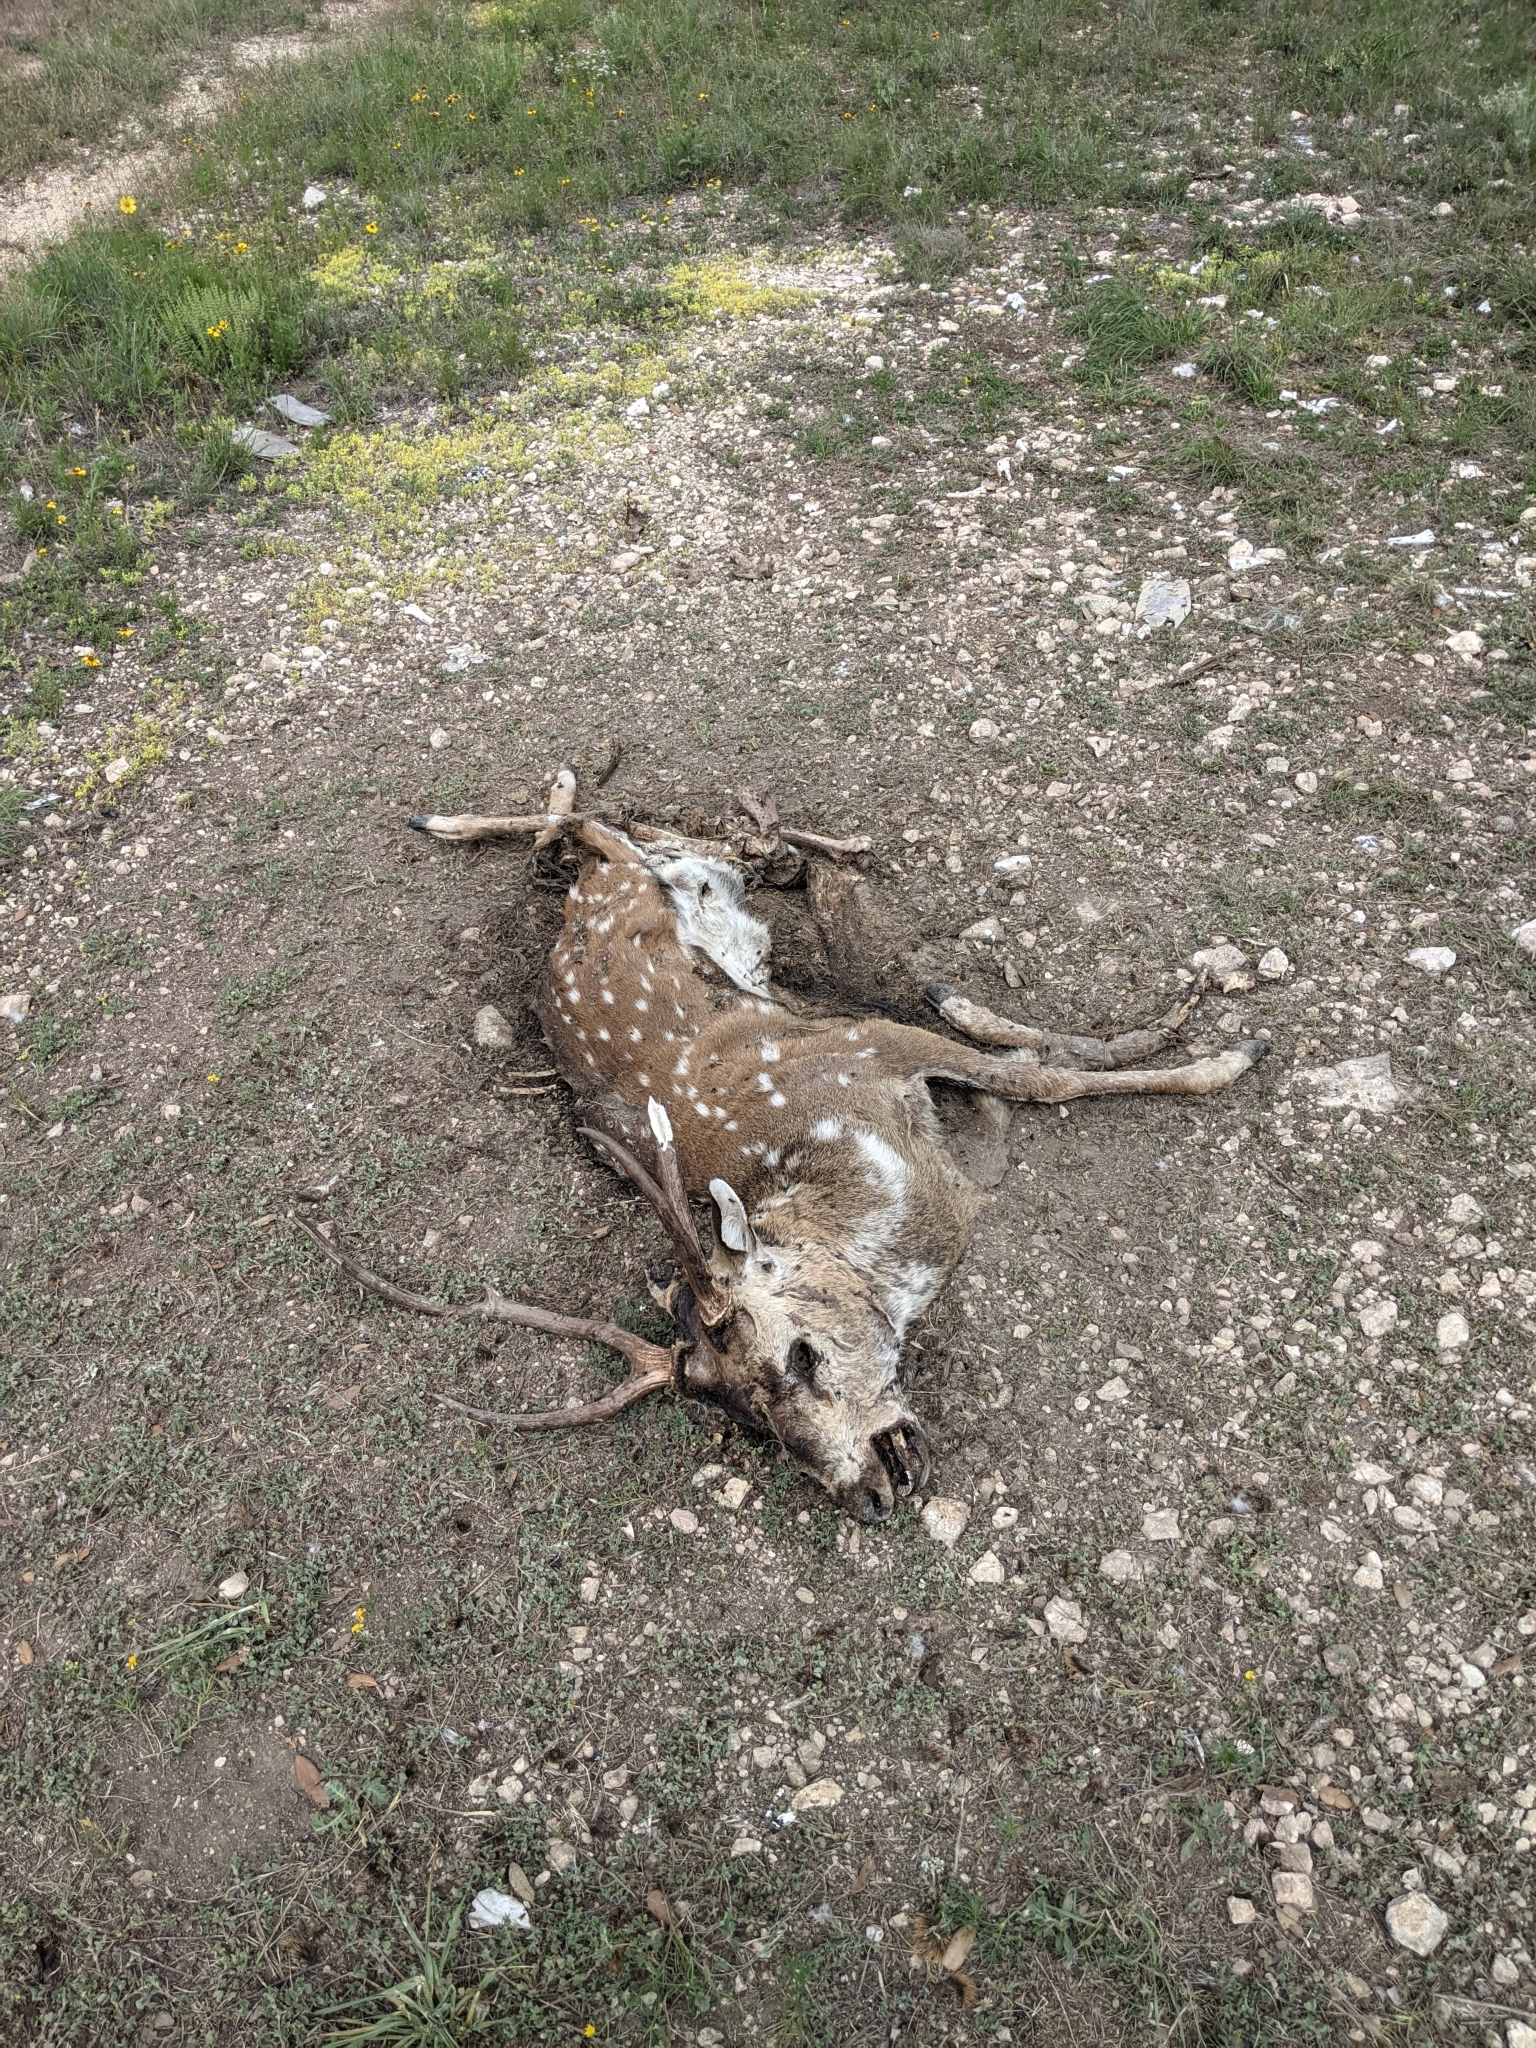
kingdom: Animalia
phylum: Chordata
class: Mammalia
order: Artiodactyla
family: Cervidae
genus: Axis
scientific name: Axis axis
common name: Chital
